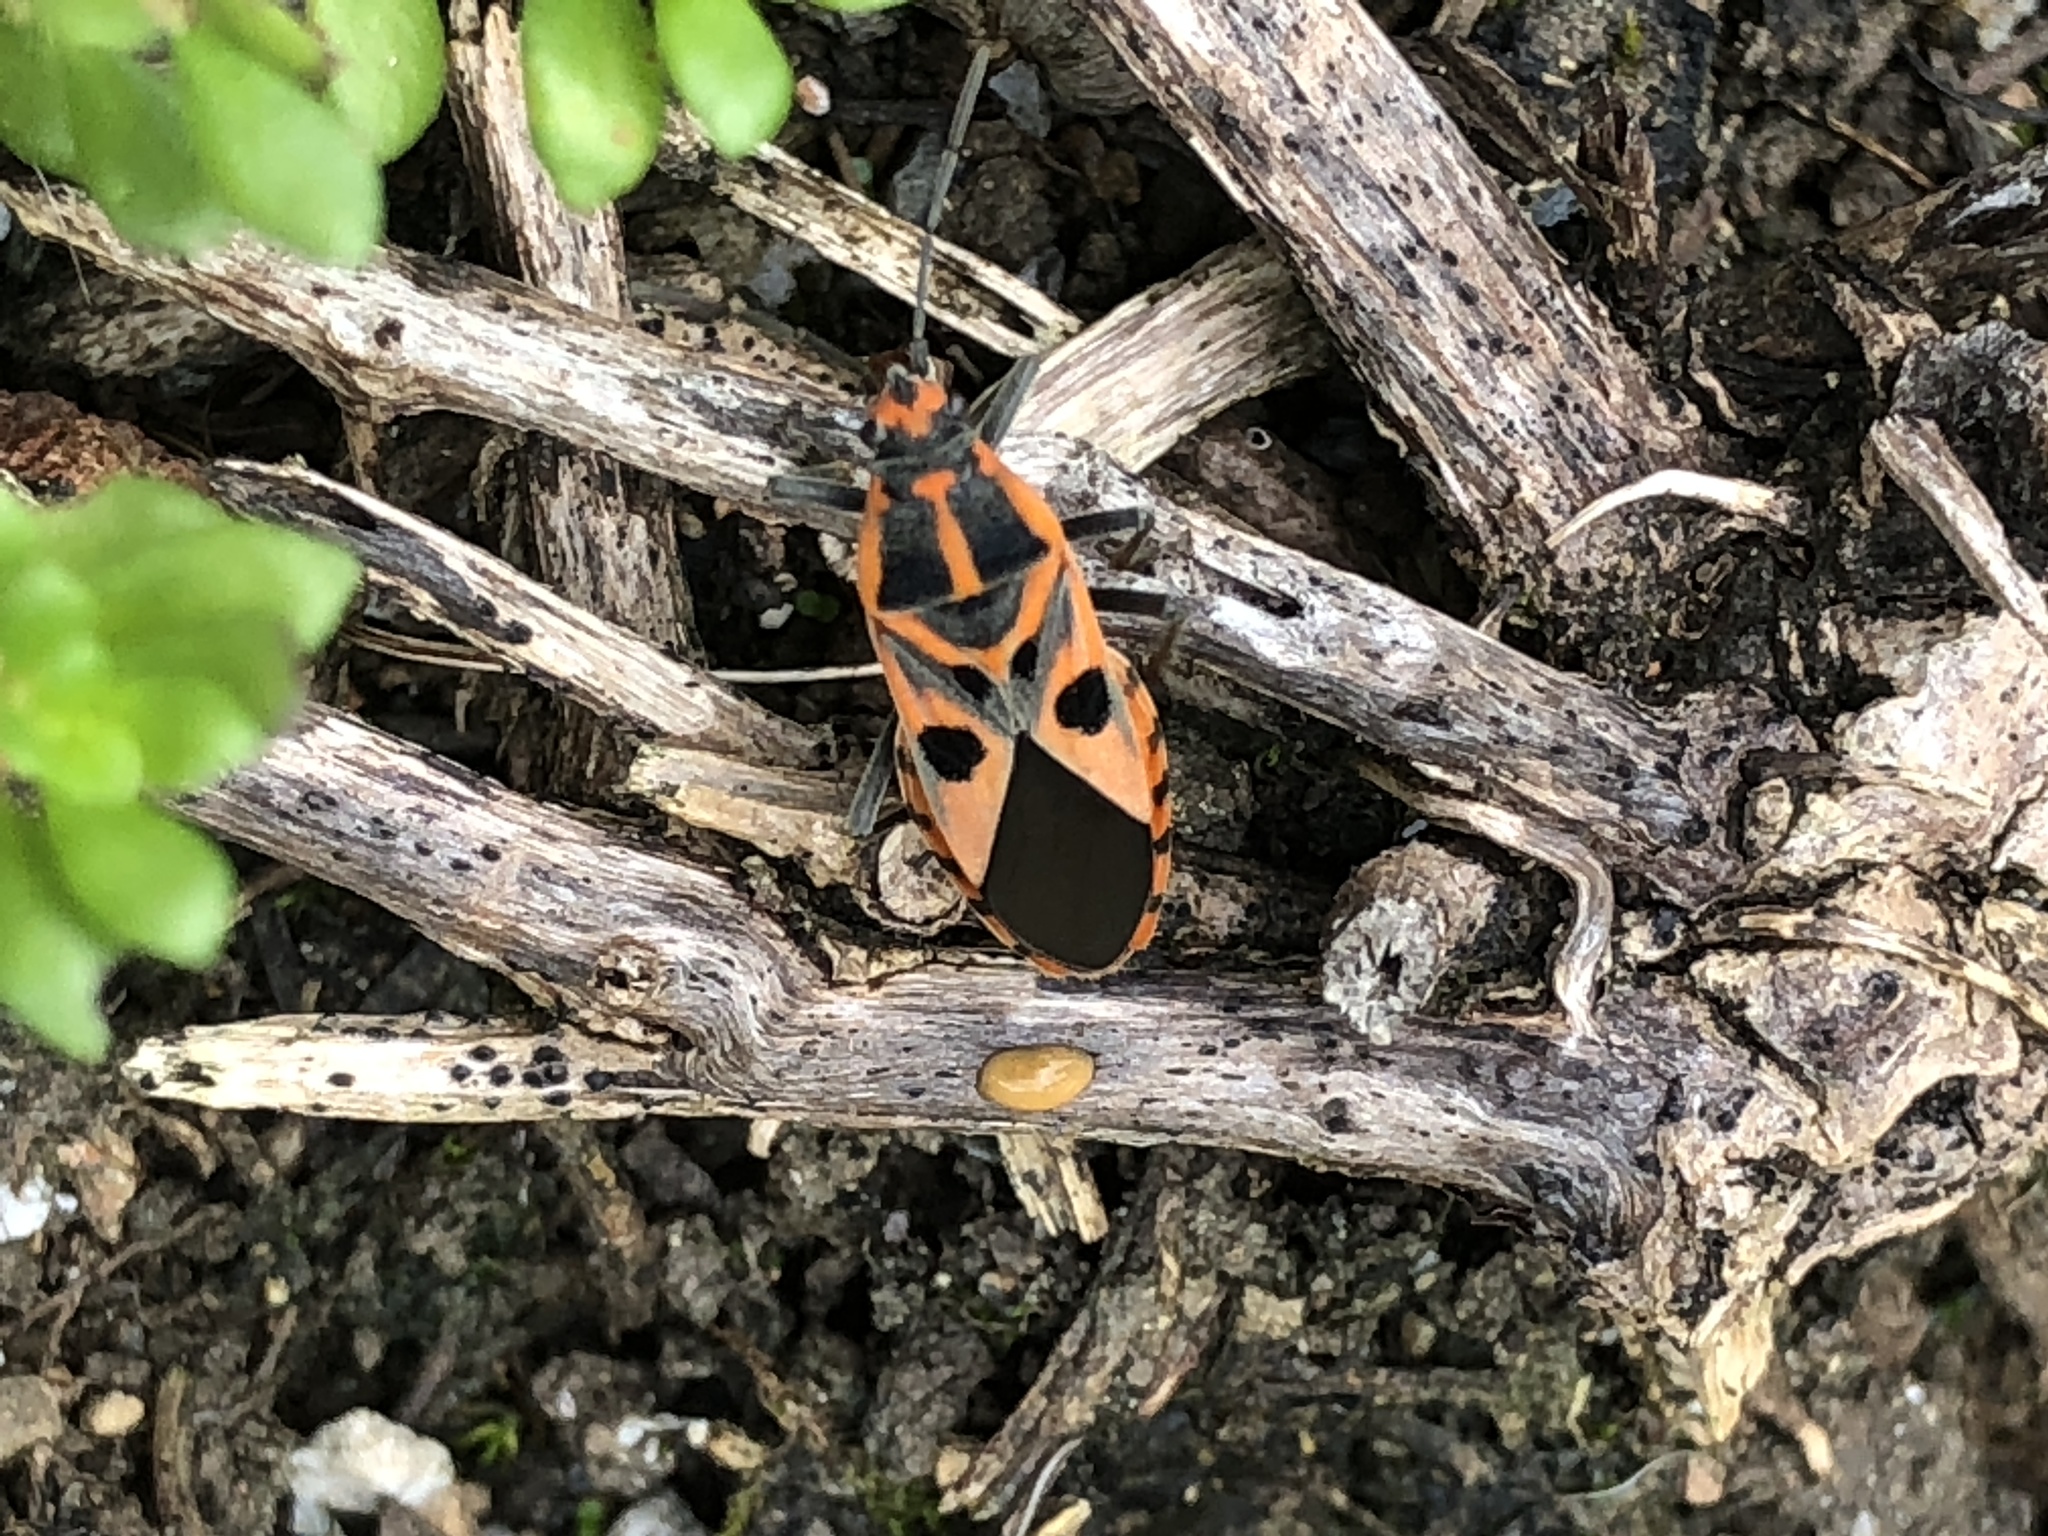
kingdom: Animalia
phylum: Arthropoda
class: Insecta
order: Hemiptera
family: Lygaeidae
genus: Spilostethus
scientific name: Spilostethus hospes
